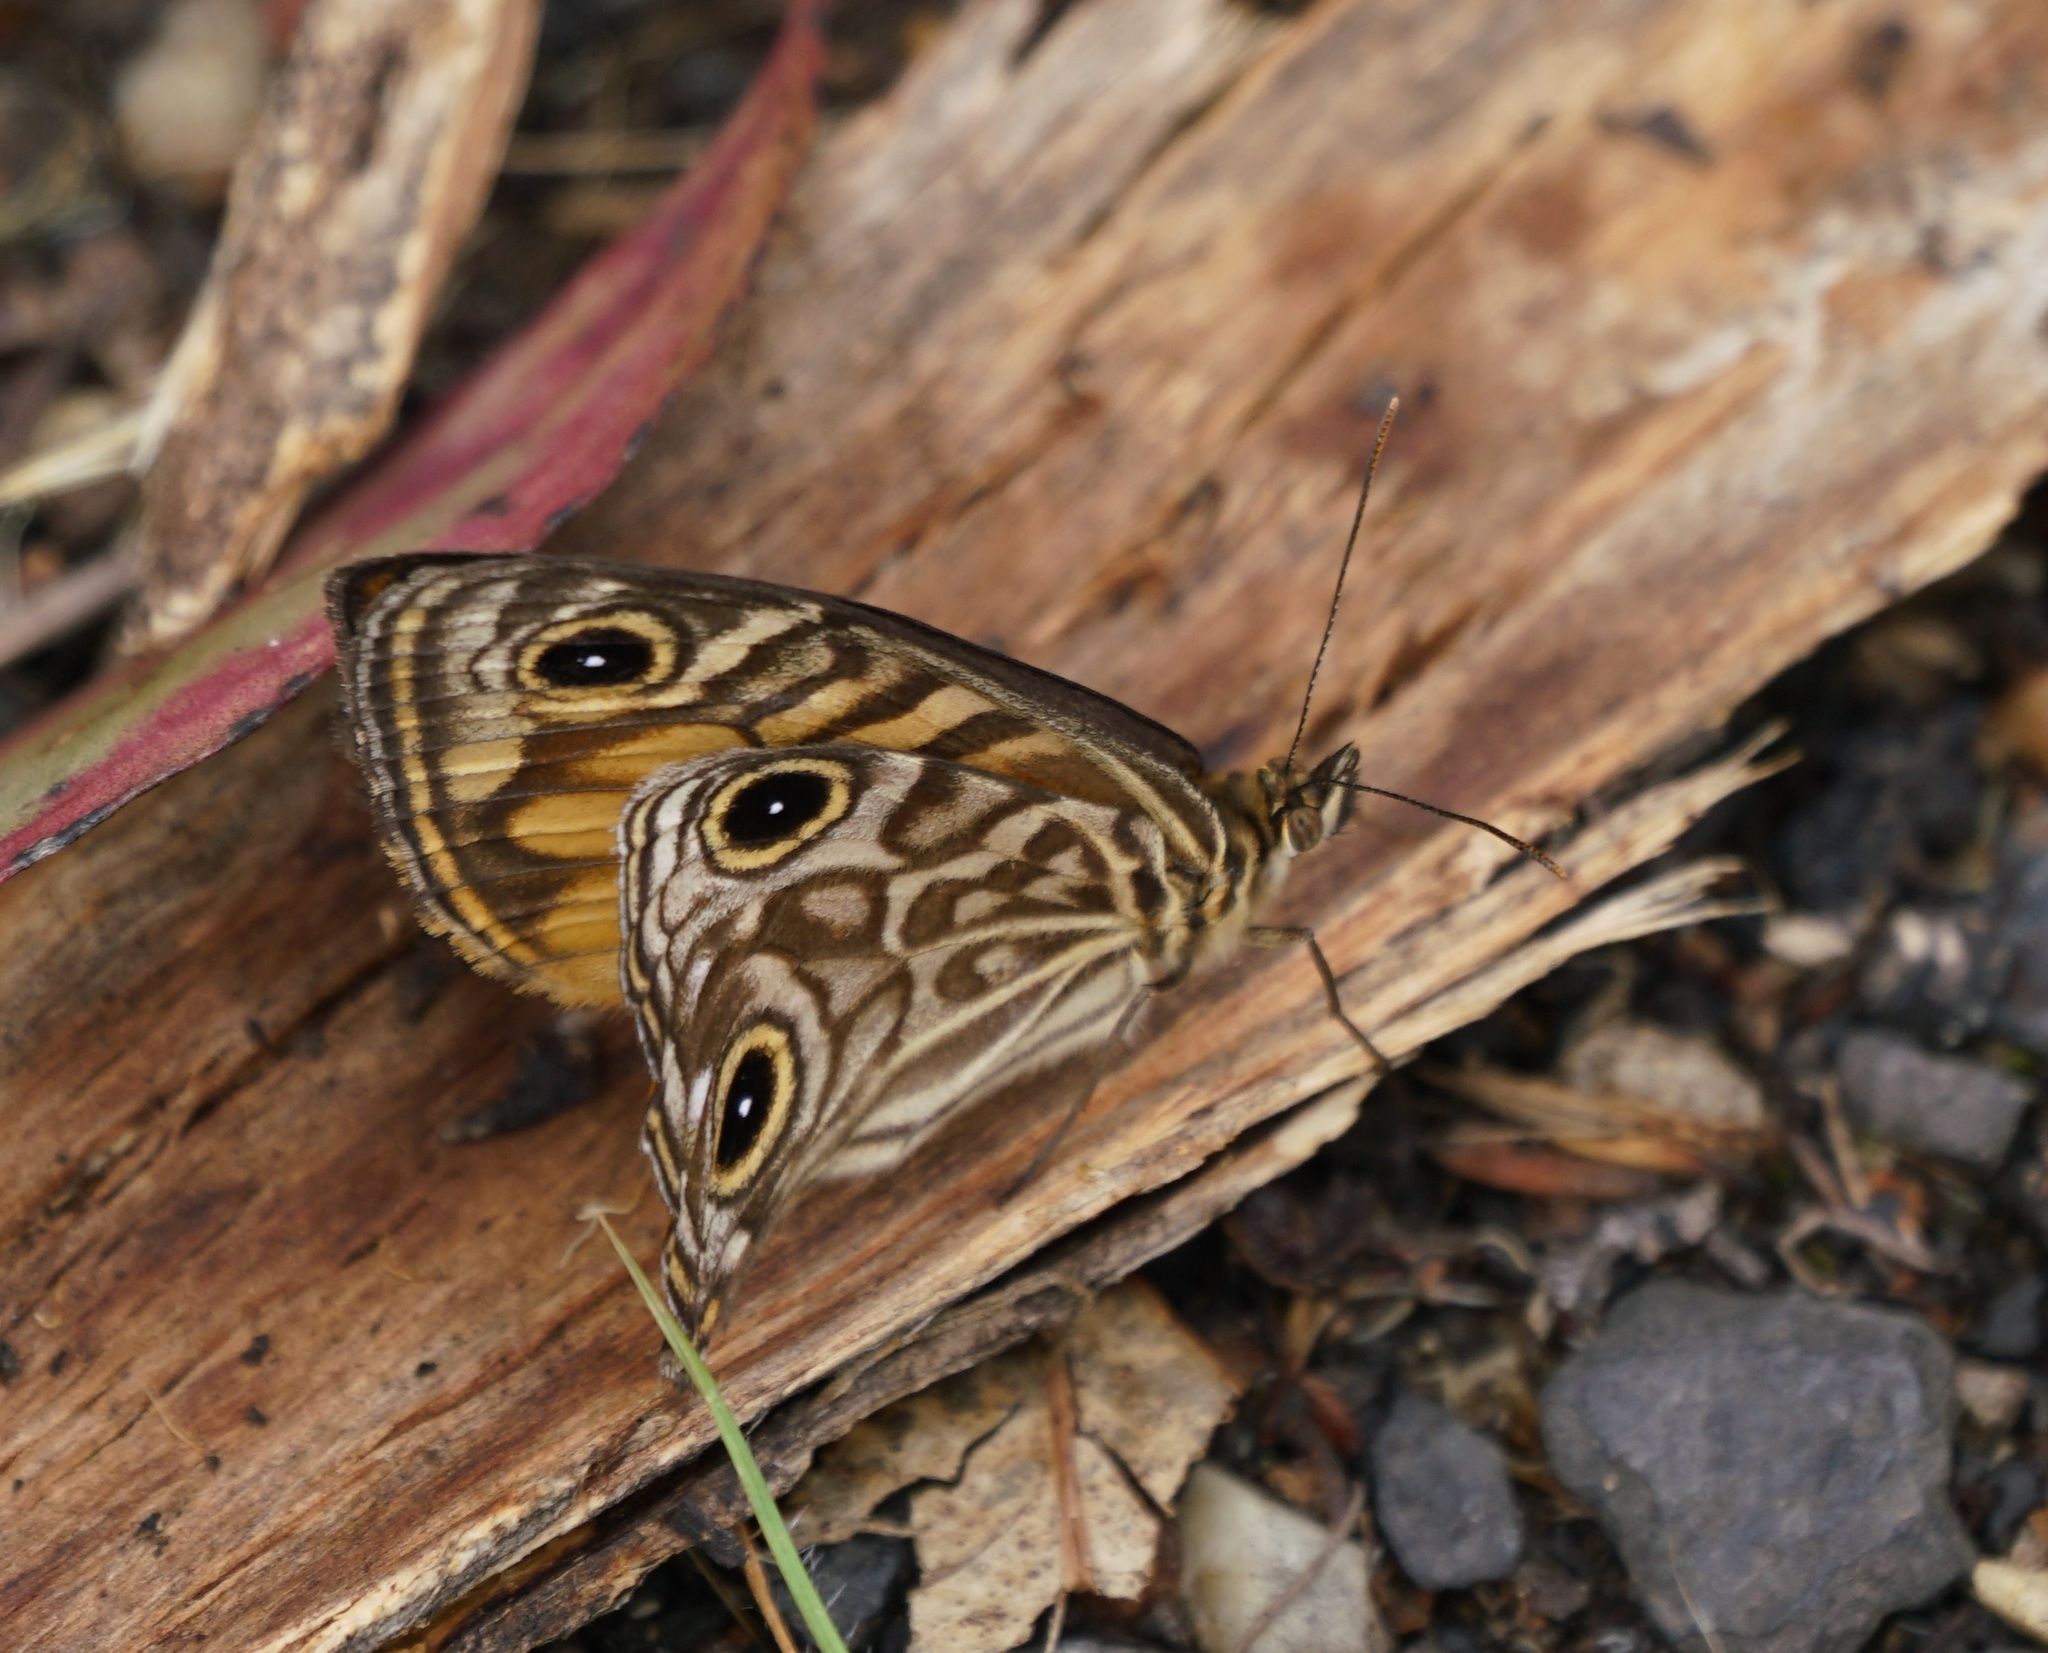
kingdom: Animalia
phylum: Arthropoda
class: Insecta
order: Lepidoptera
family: Nymphalidae
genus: Geitoneura
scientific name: Geitoneura acantha
